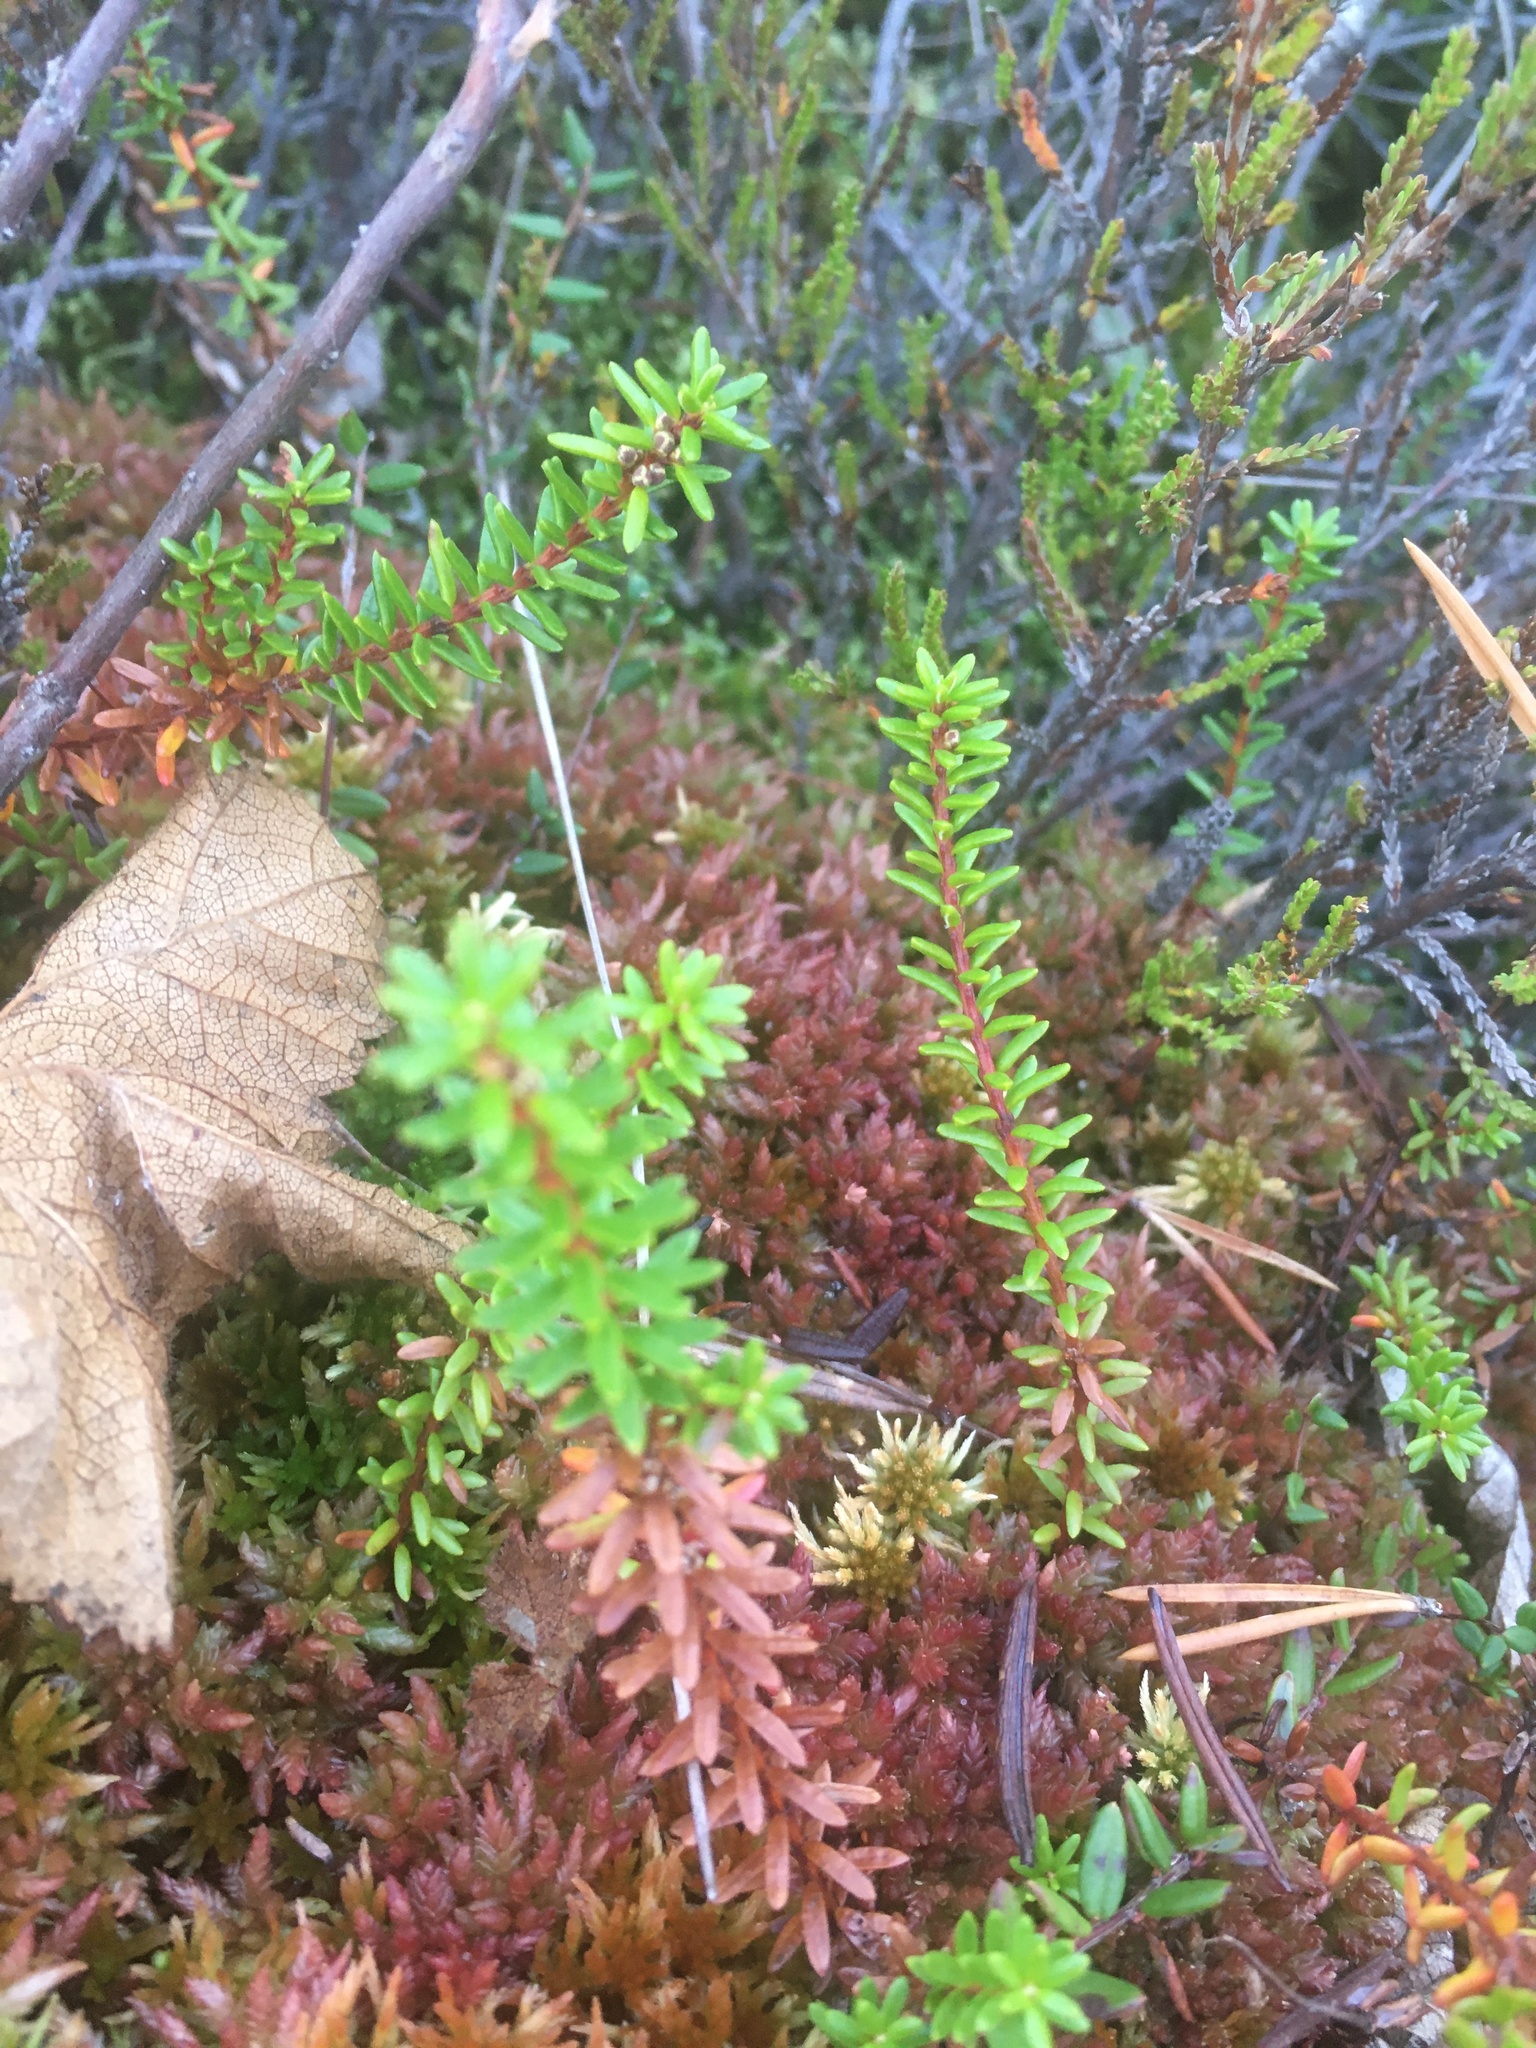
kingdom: Plantae
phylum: Tracheophyta
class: Magnoliopsida
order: Ericales
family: Ericaceae
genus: Empetrum
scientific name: Empetrum nigrum
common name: Black crowberry
